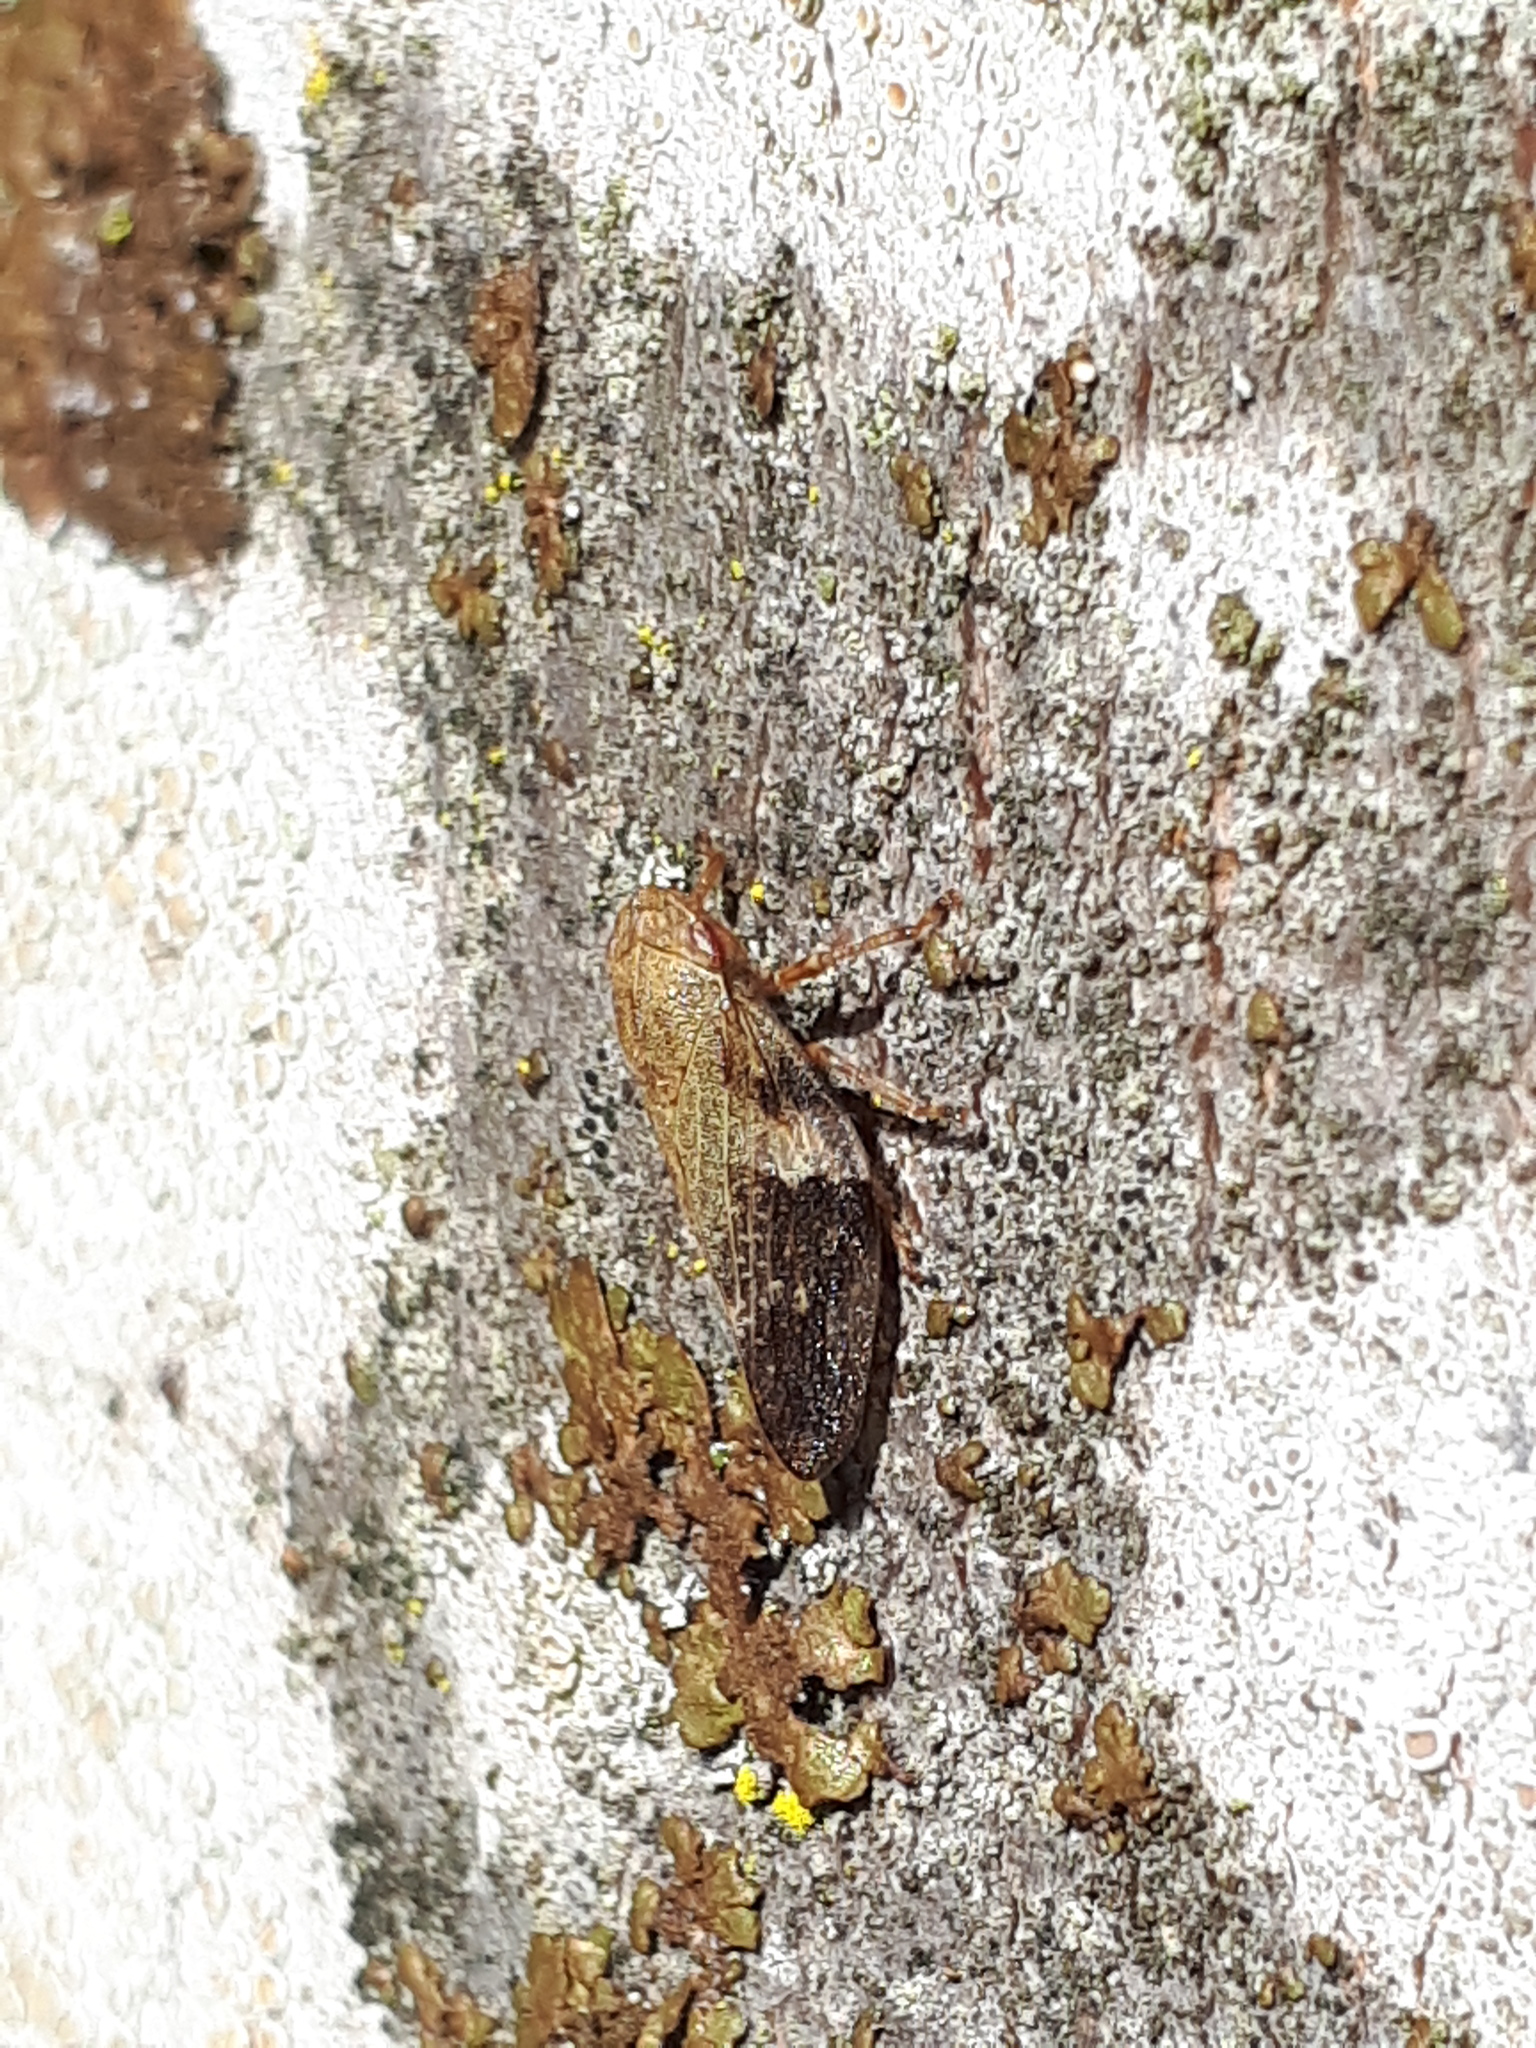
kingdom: Animalia
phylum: Arthropoda
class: Insecta
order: Hemiptera
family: Aphrophoridae
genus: Aphrophora
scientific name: Aphrophora alni
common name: European alder spittlebug
